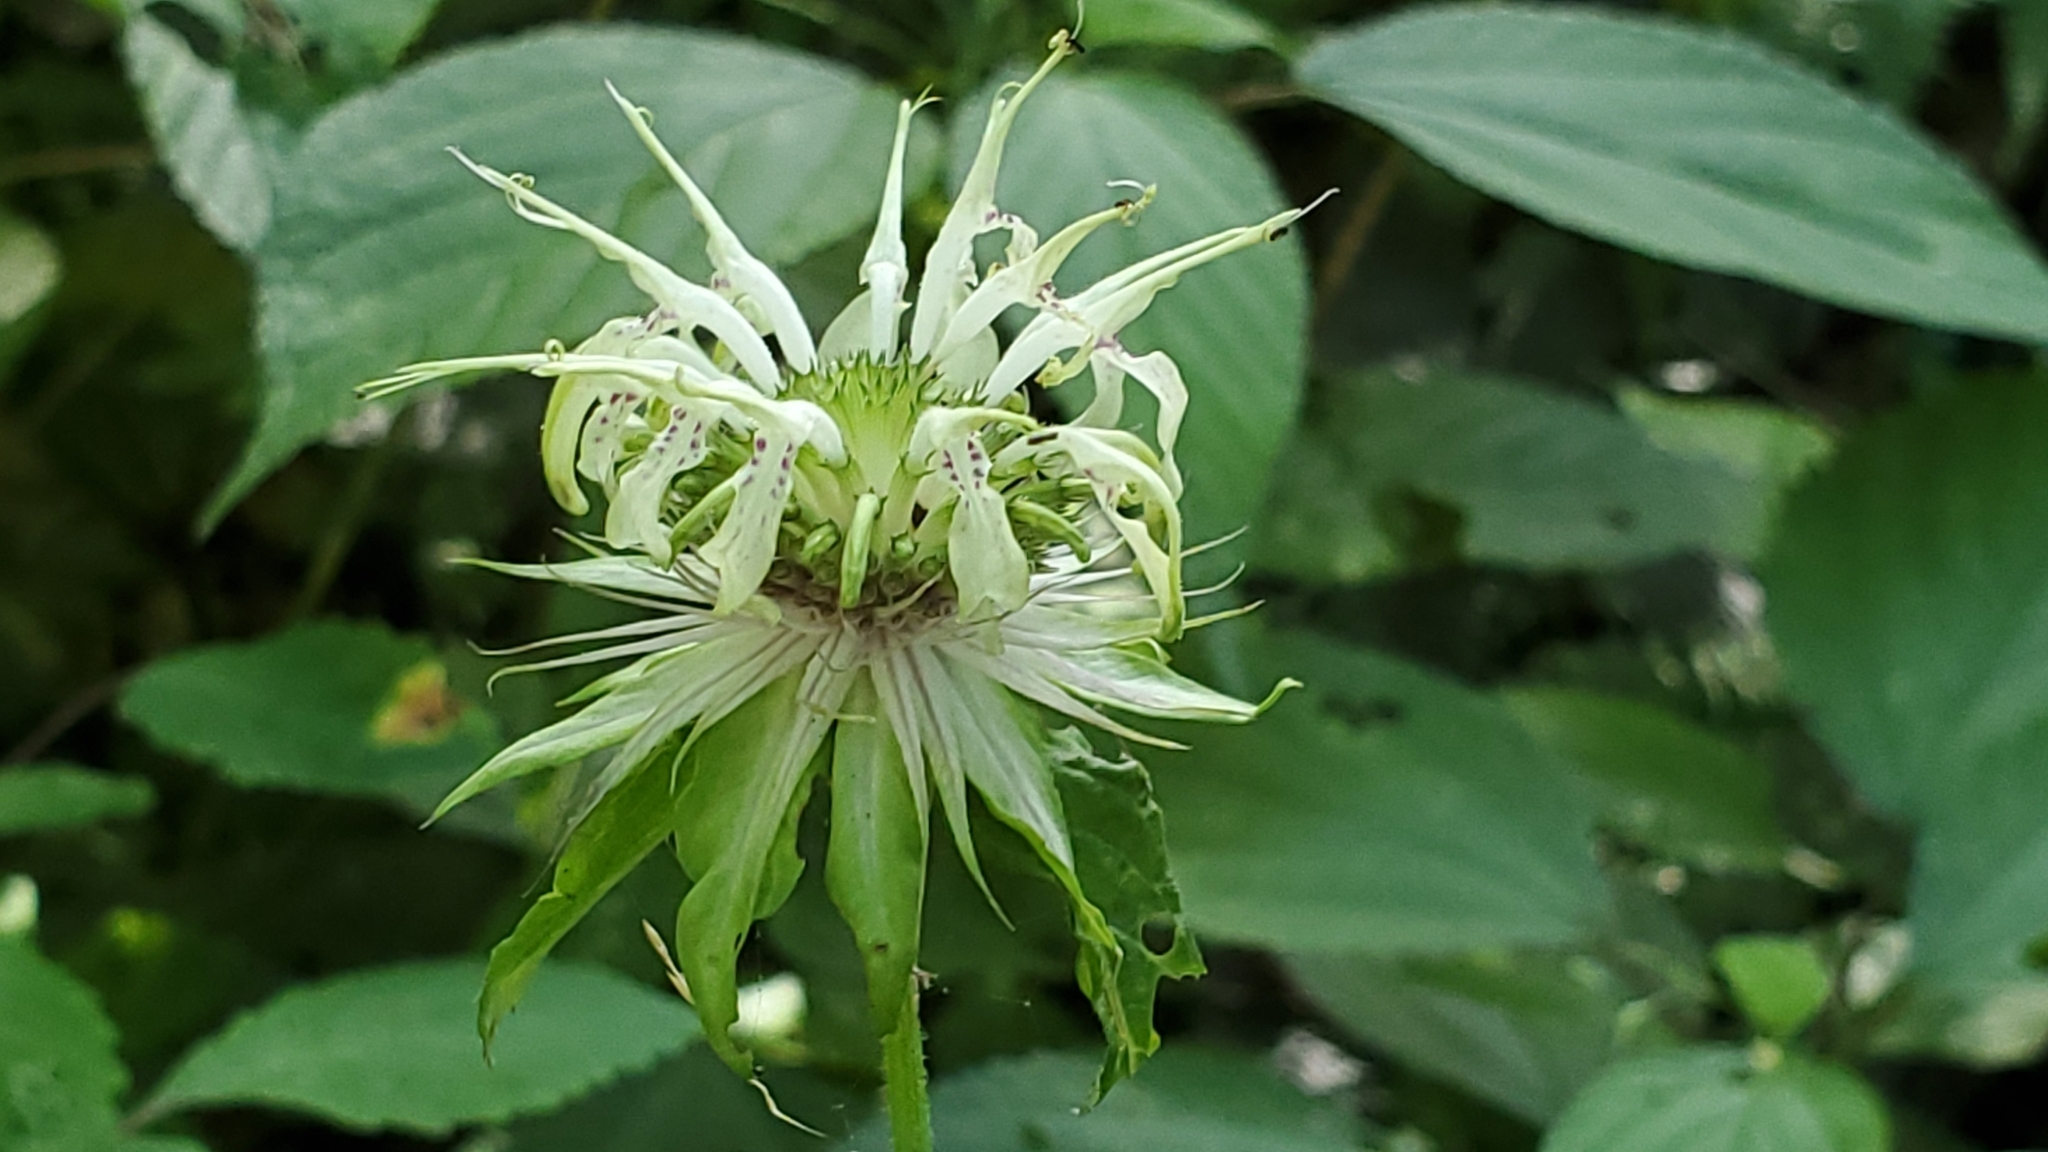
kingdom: Plantae
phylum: Tracheophyta
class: Magnoliopsida
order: Lamiales
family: Lamiaceae
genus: Monarda
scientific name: Monarda clinopodia
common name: Basil beebalm
